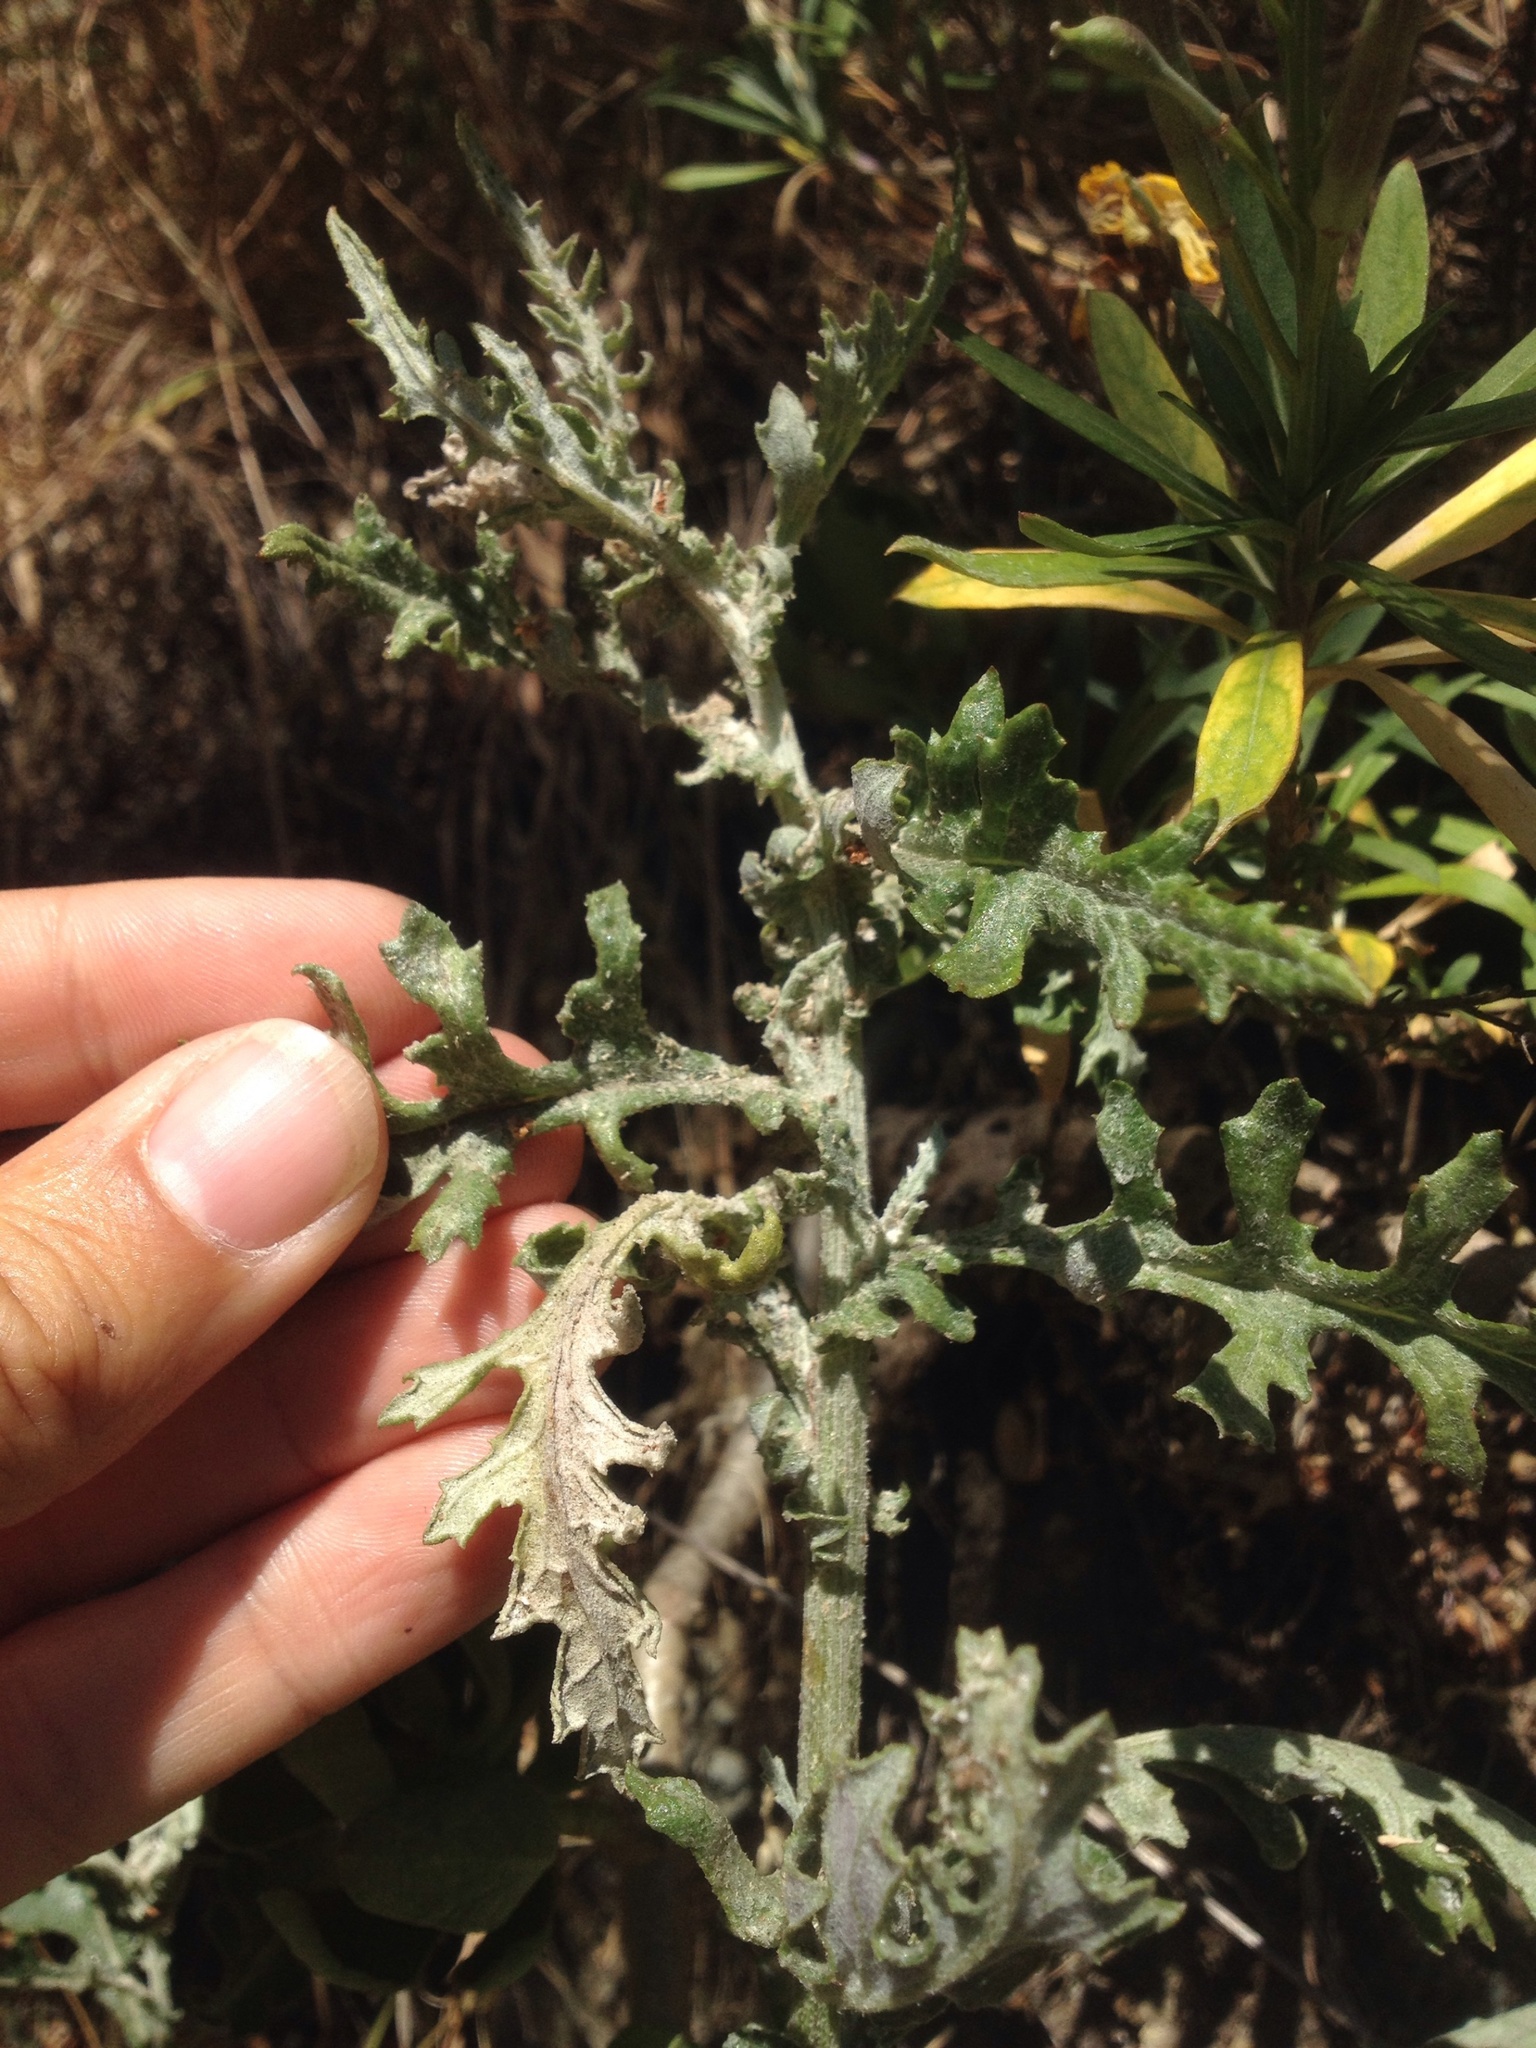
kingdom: Plantae
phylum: Tracheophyta
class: Magnoliopsida
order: Asterales
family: Asteraceae
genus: Senecio
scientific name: Senecio glomeratus
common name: Cutleaf burnweed
